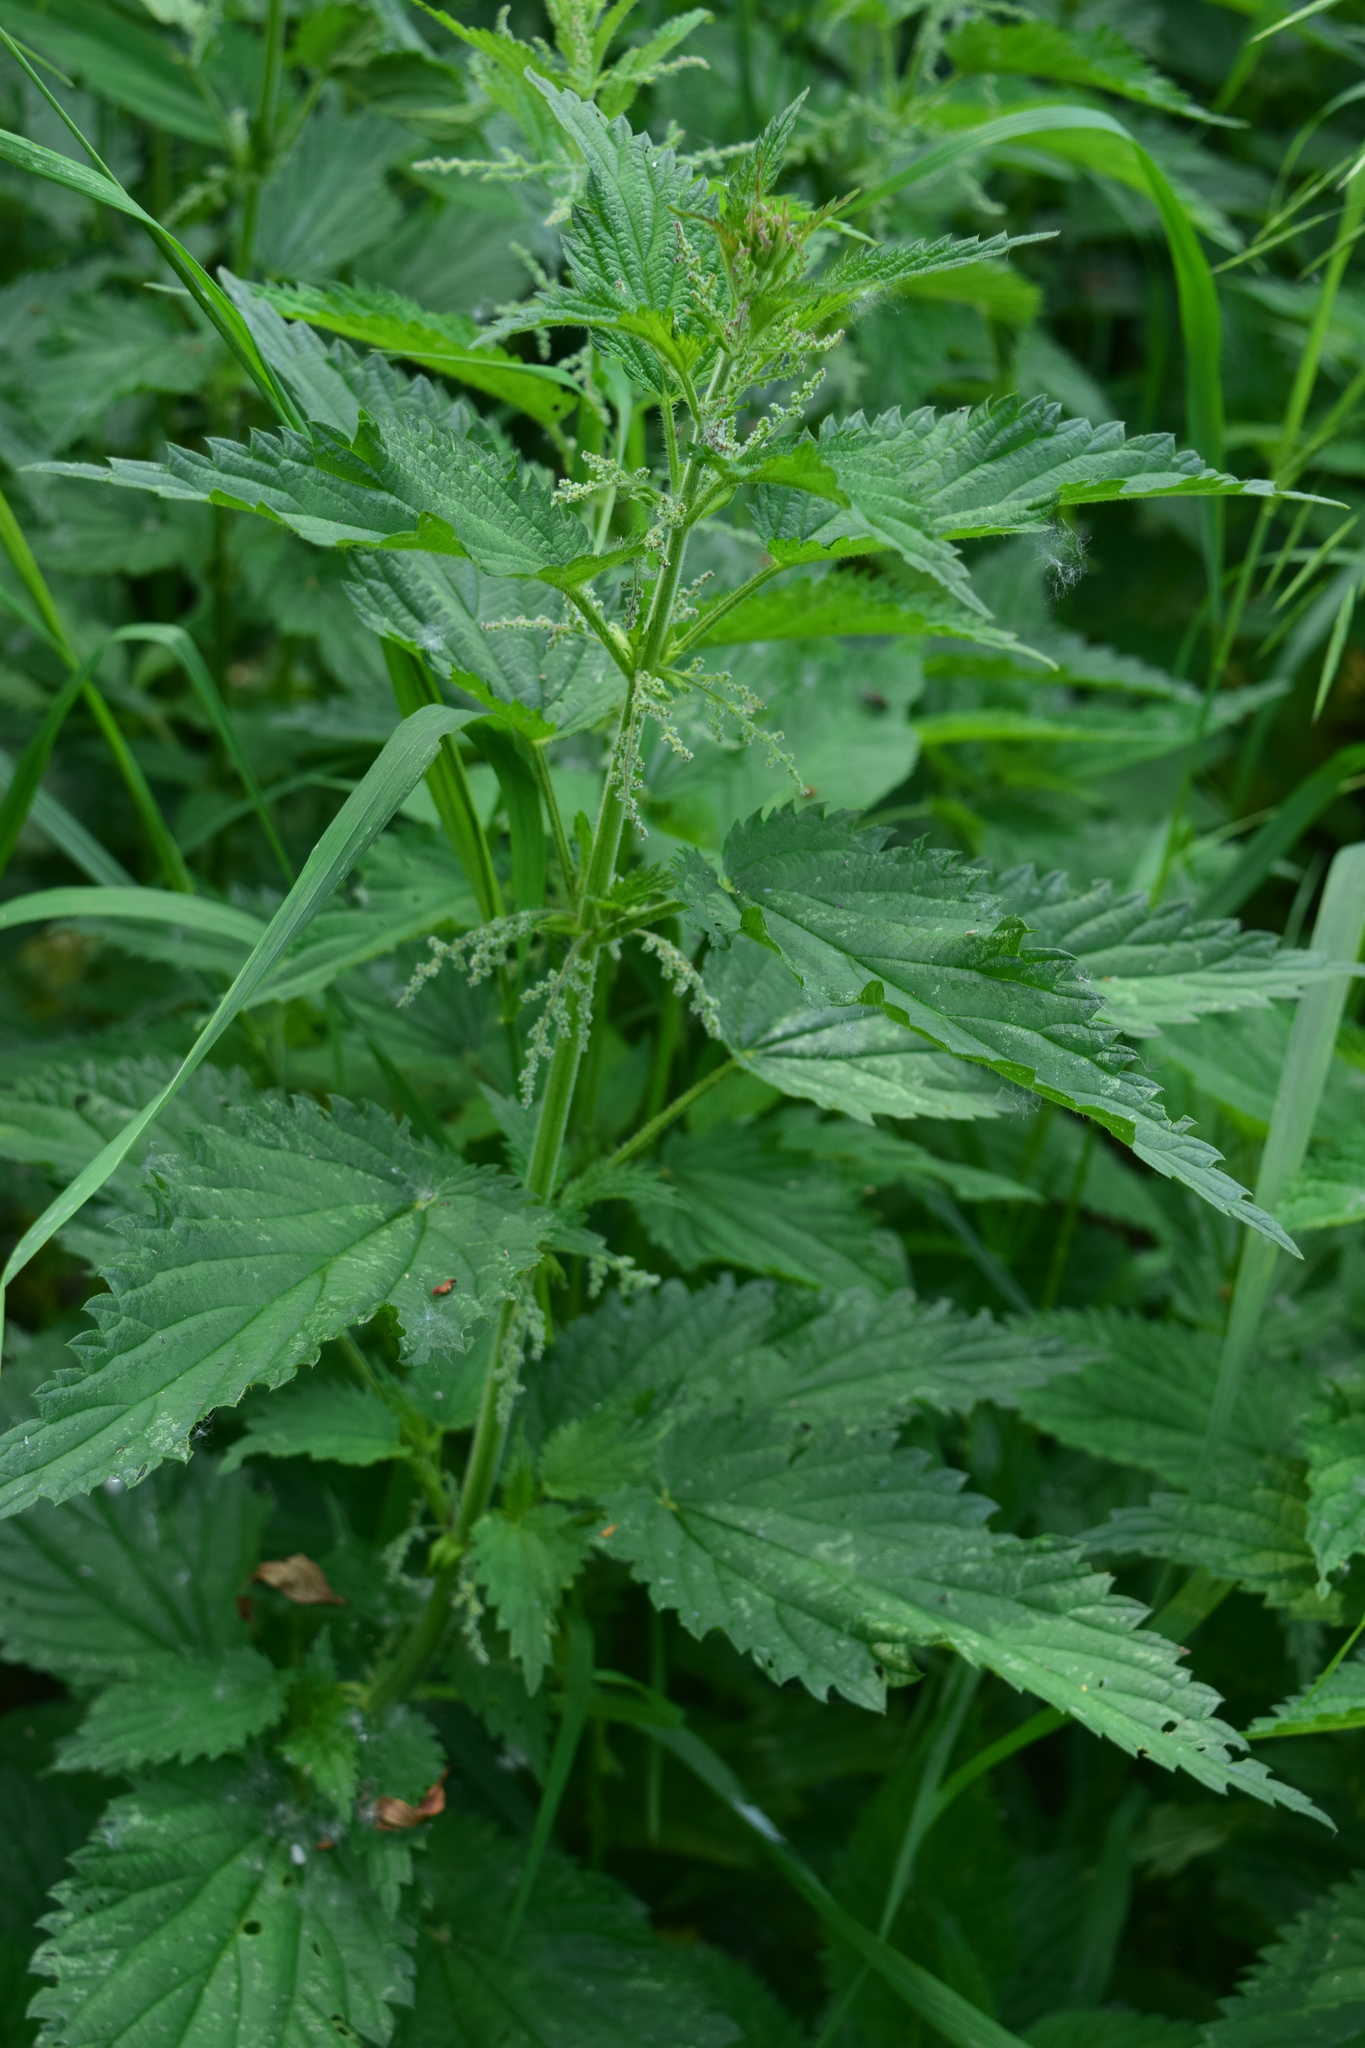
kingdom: Plantae
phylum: Tracheophyta
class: Magnoliopsida
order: Rosales
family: Urticaceae
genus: Urtica
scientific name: Urtica dioica
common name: Common nettle
